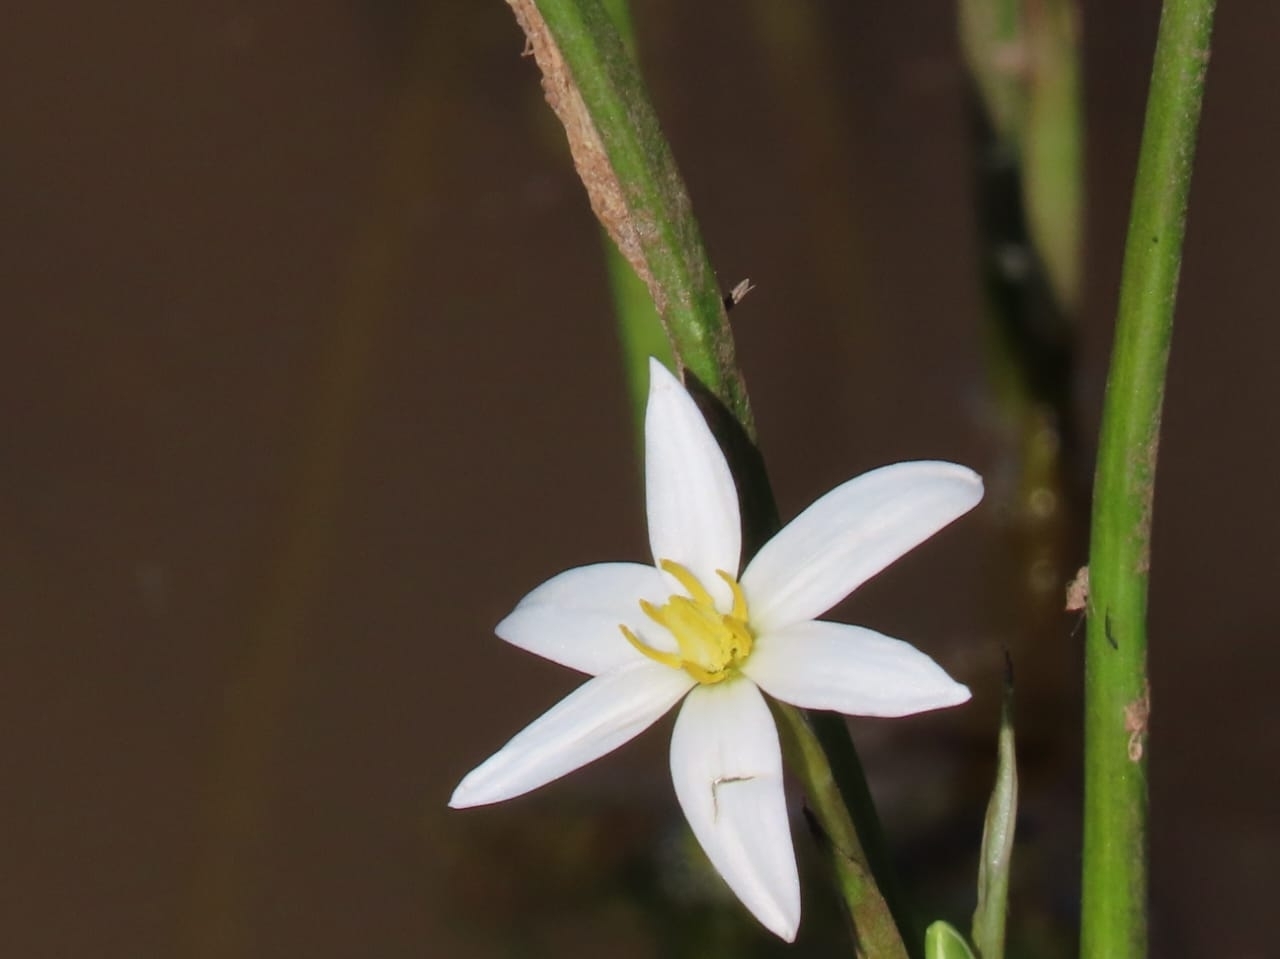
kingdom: Plantae
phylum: Tracheophyta
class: Liliopsida
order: Asparagales
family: Hypoxidaceae
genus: Pauridia
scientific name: Pauridia aquatica
